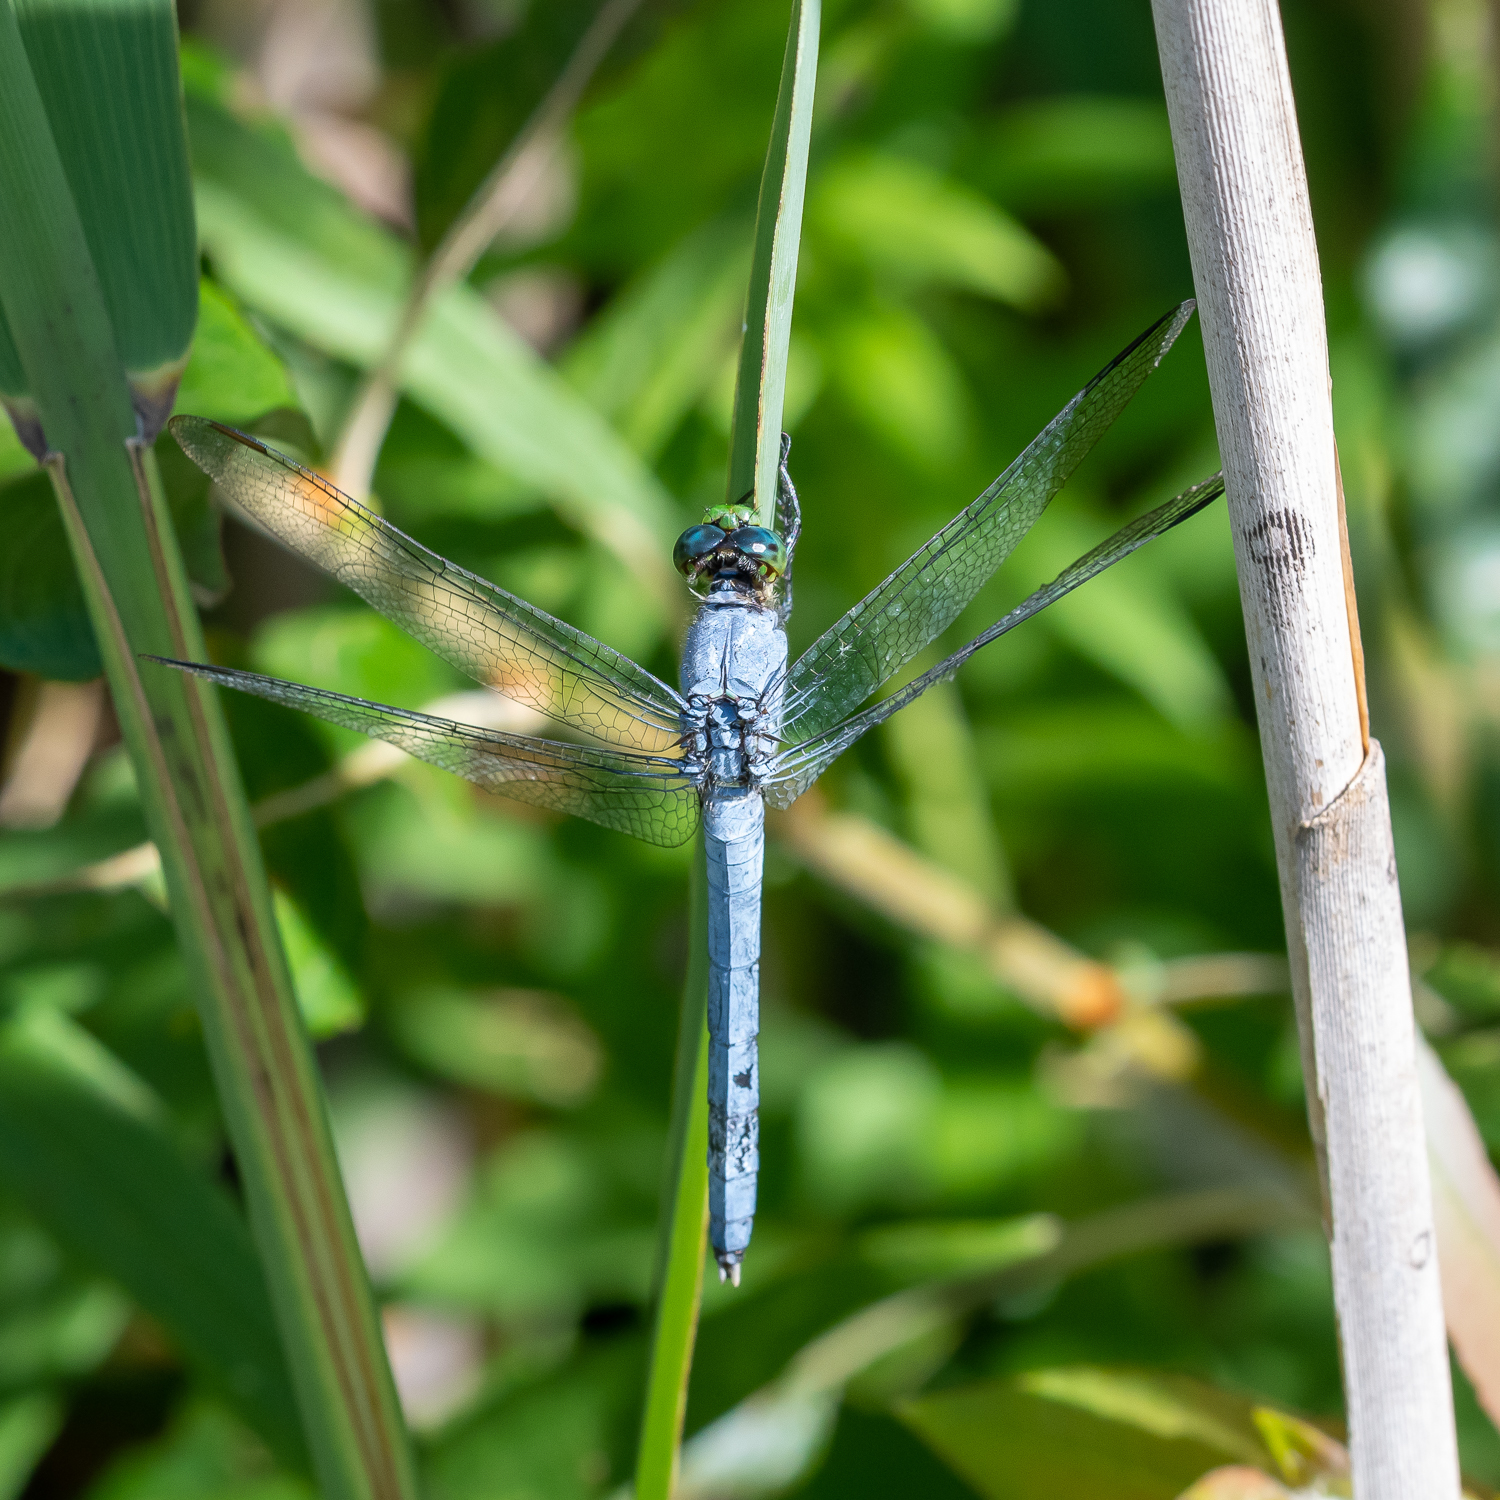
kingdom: Animalia
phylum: Arthropoda
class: Insecta
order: Odonata
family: Libellulidae
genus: Erythemis
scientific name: Erythemis simplicicollis
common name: Eastern pondhawk
